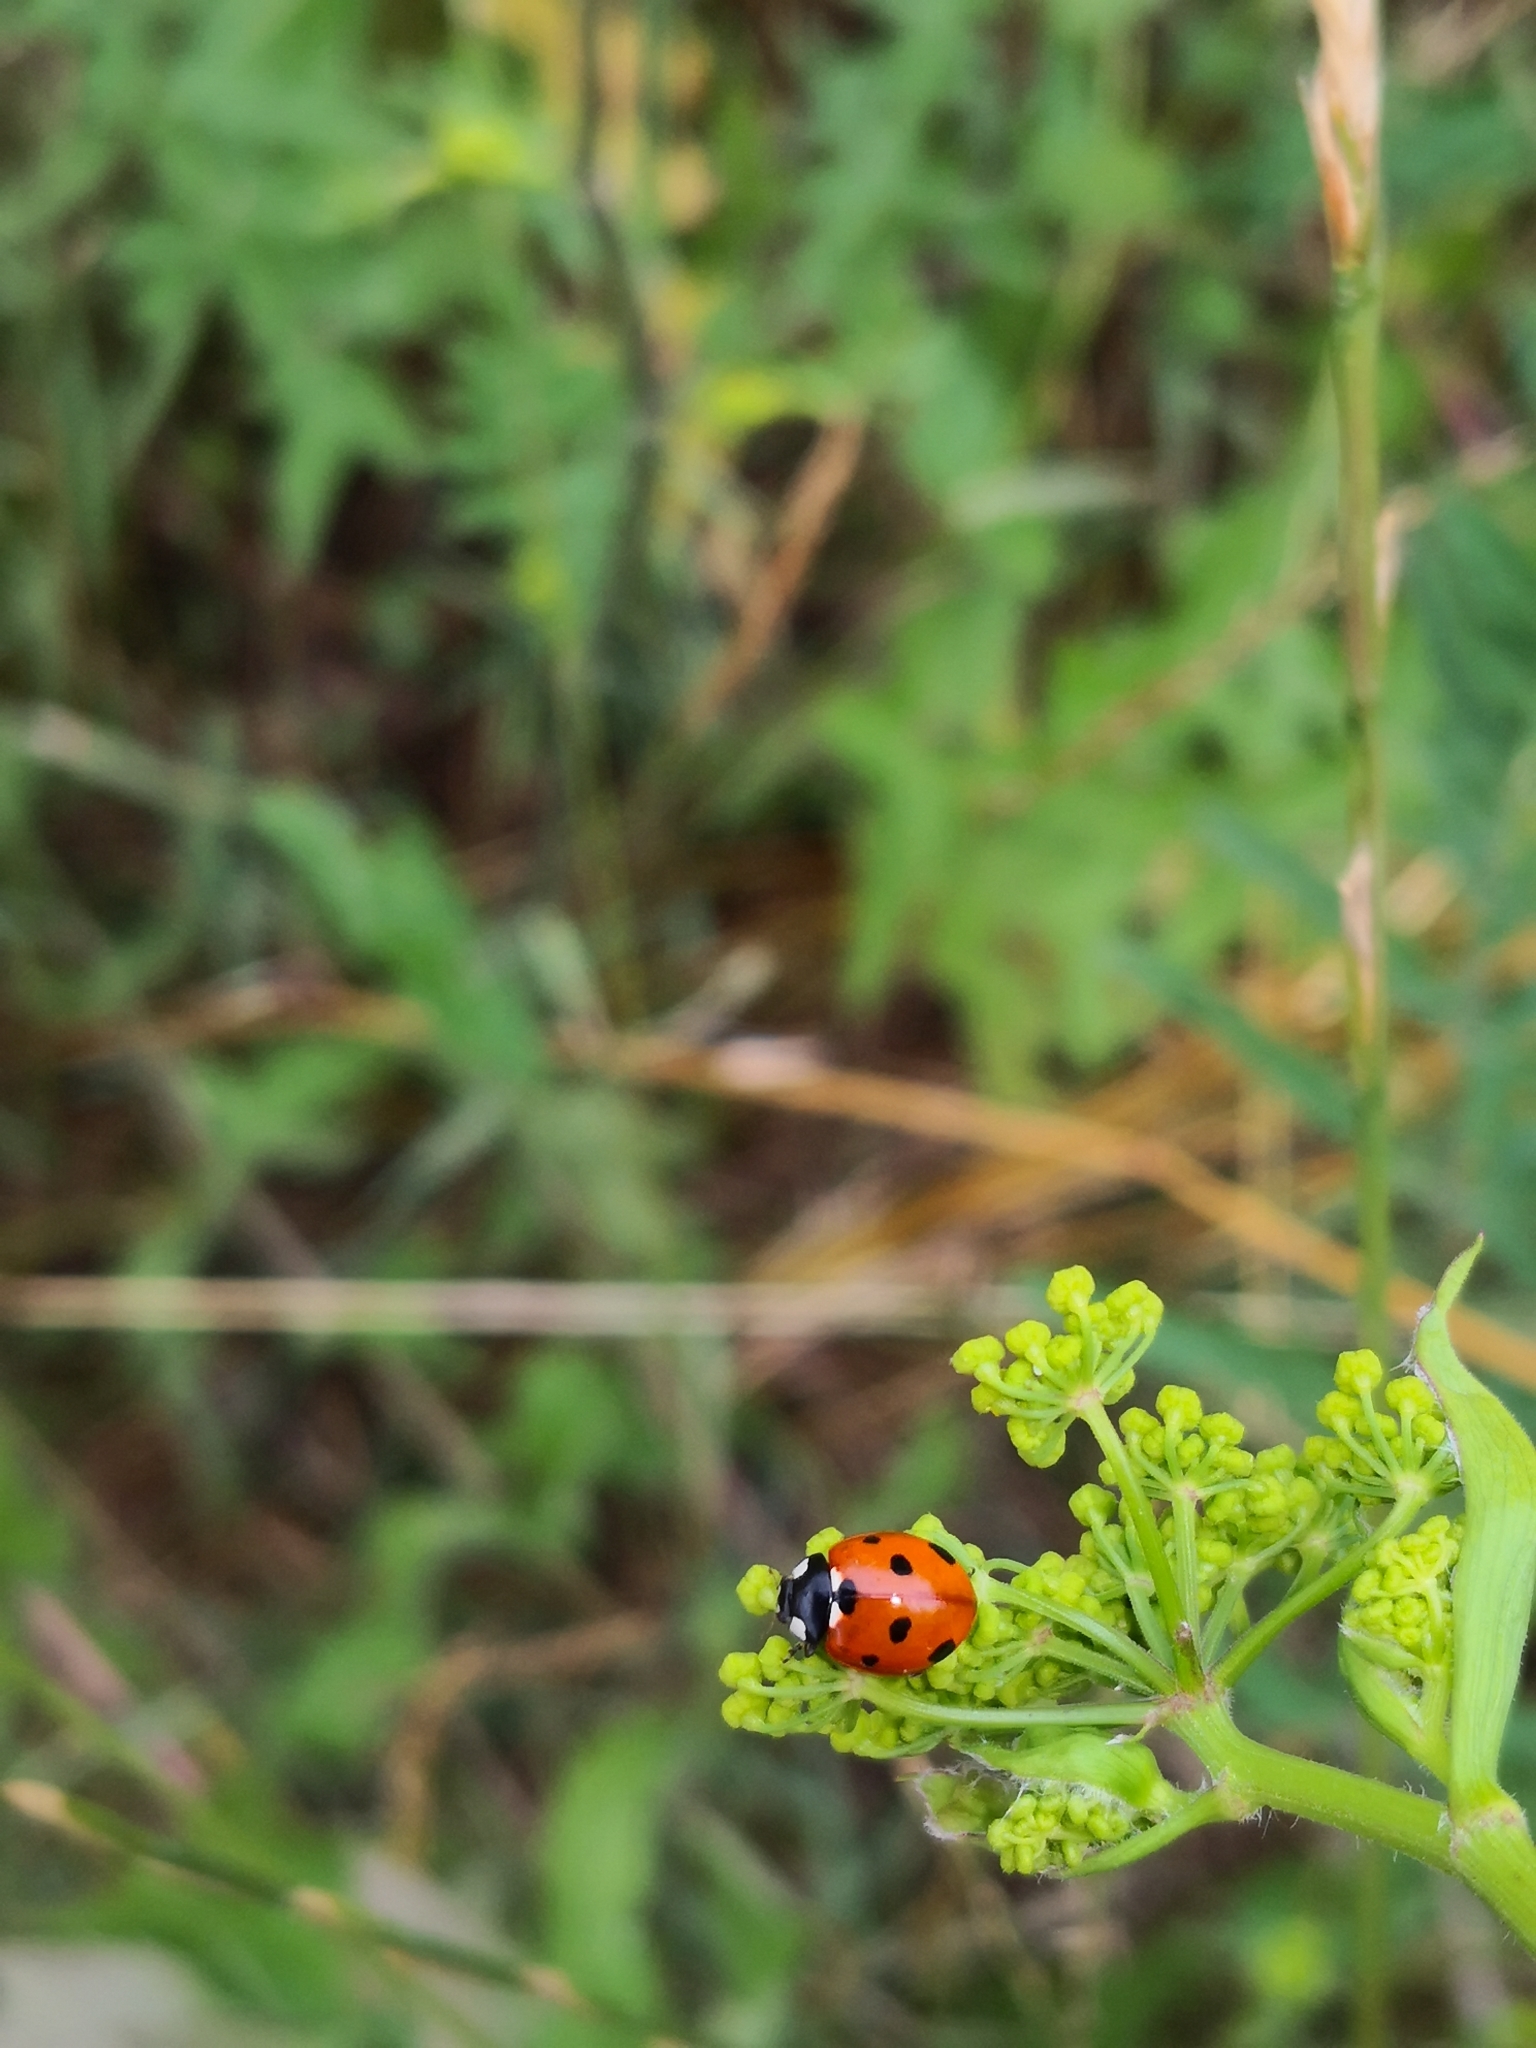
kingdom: Animalia
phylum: Arthropoda
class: Insecta
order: Coleoptera
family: Coccinellidae
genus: Coccinella
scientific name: Coccinella septempunctata
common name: Sevenspotted lady beetle
